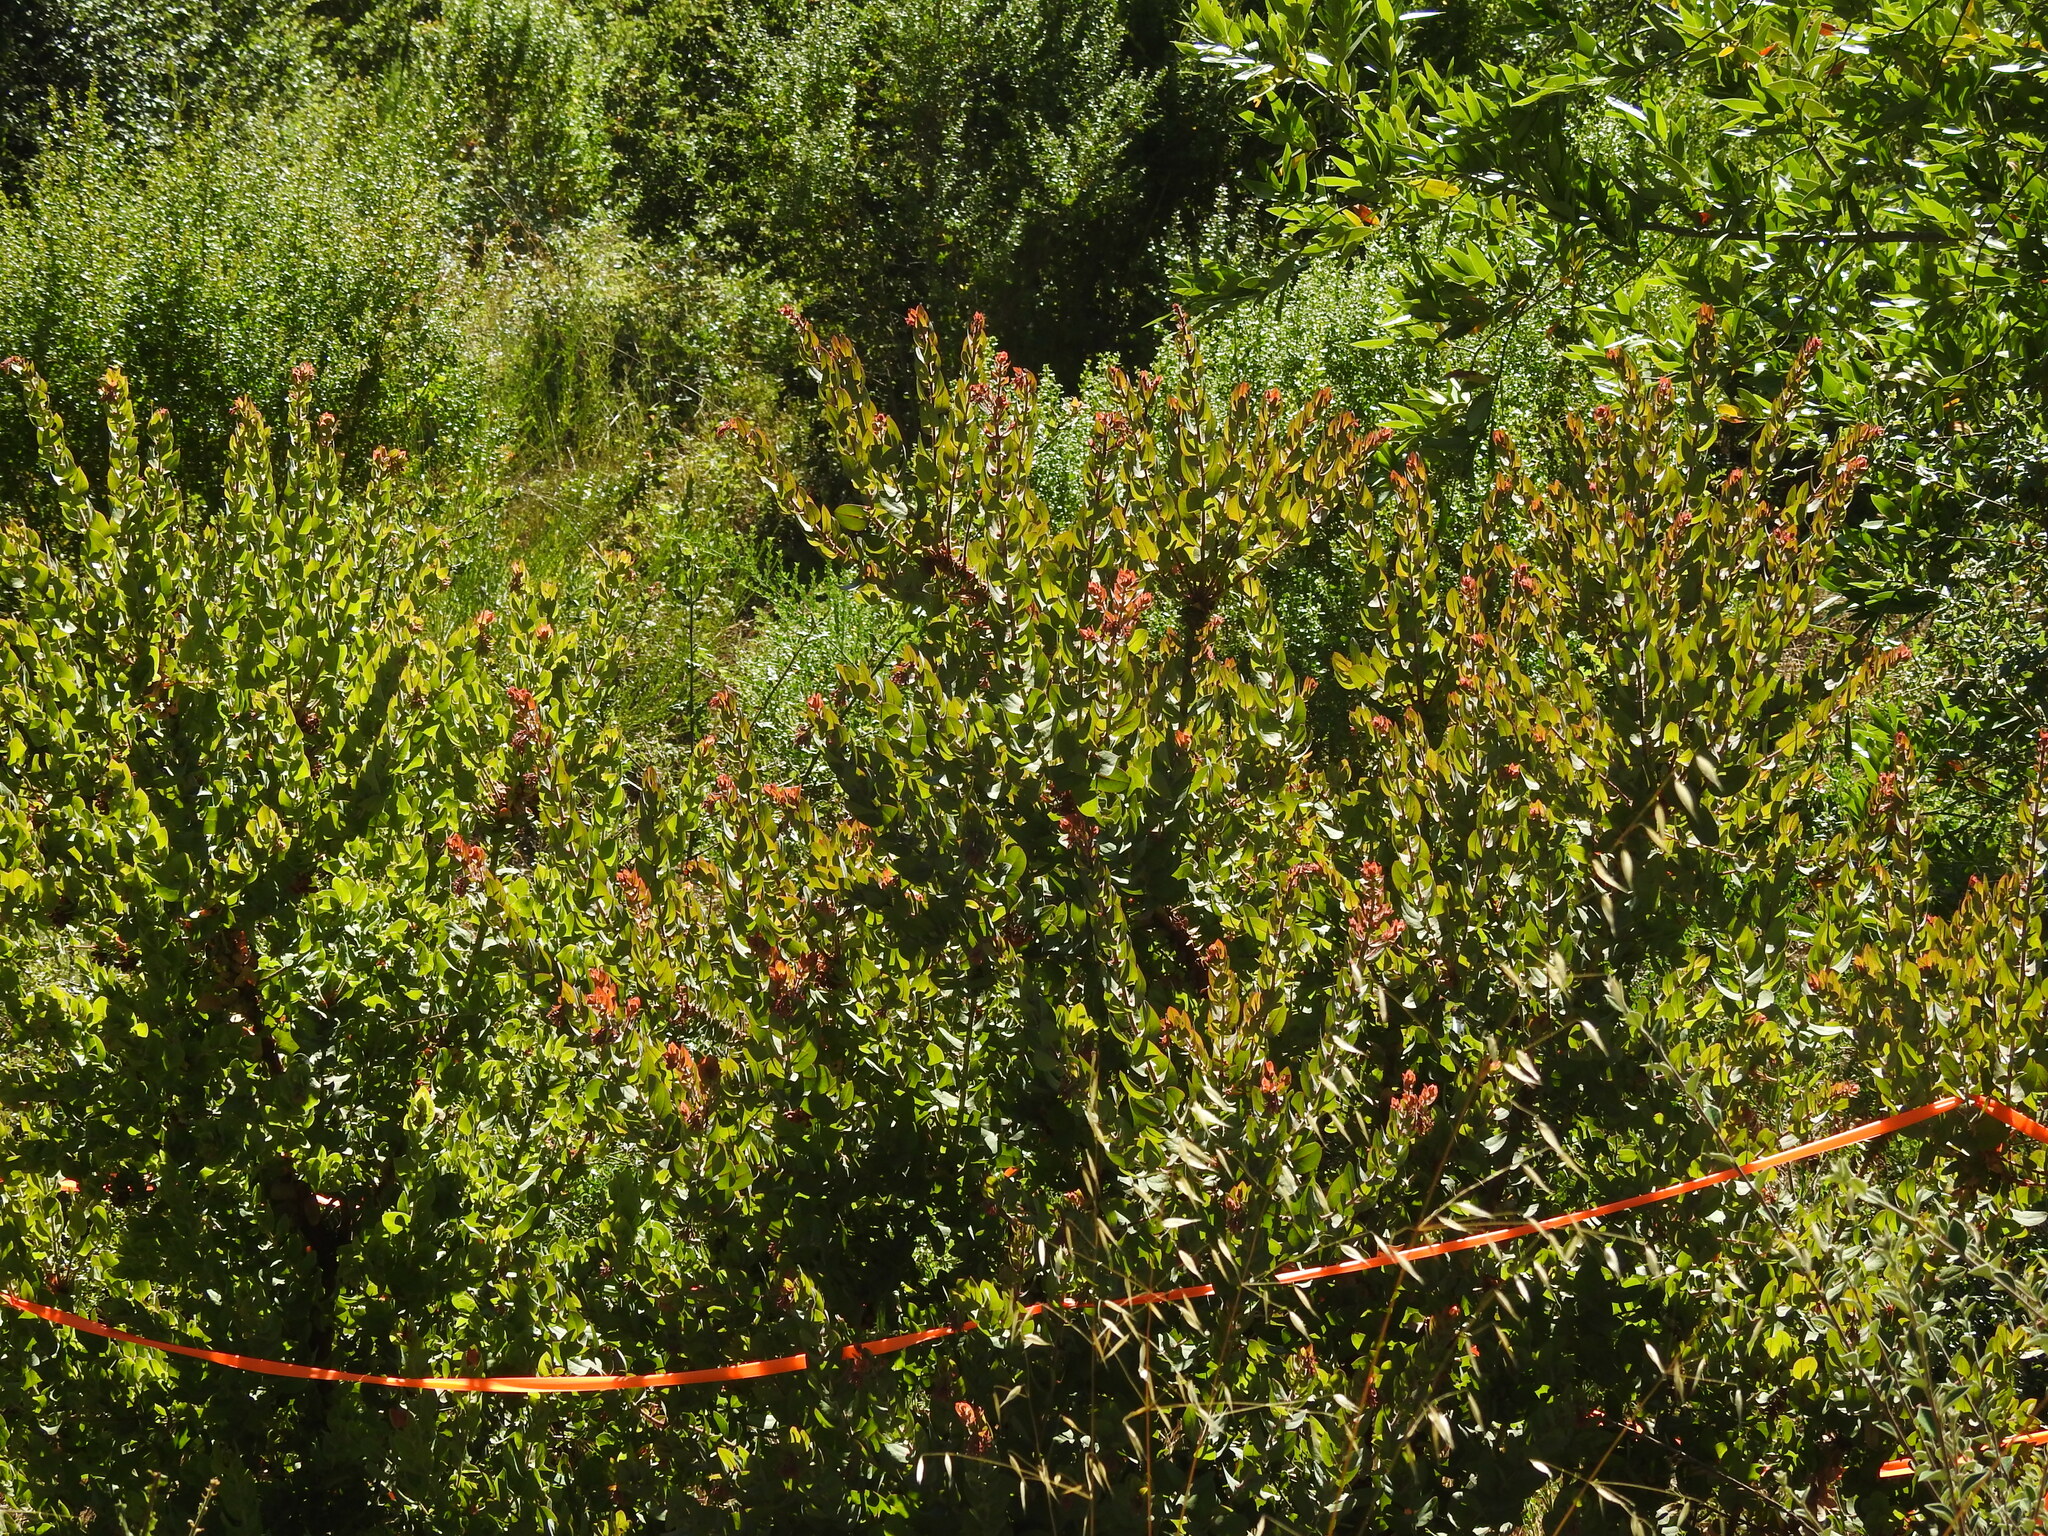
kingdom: Plantae
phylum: Tracheophyta
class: Magnoliopsida
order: Ericales
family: Ericaceae
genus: Arctostaphylos
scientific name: Arctostaphylos pallida
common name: Pallid manzanita
